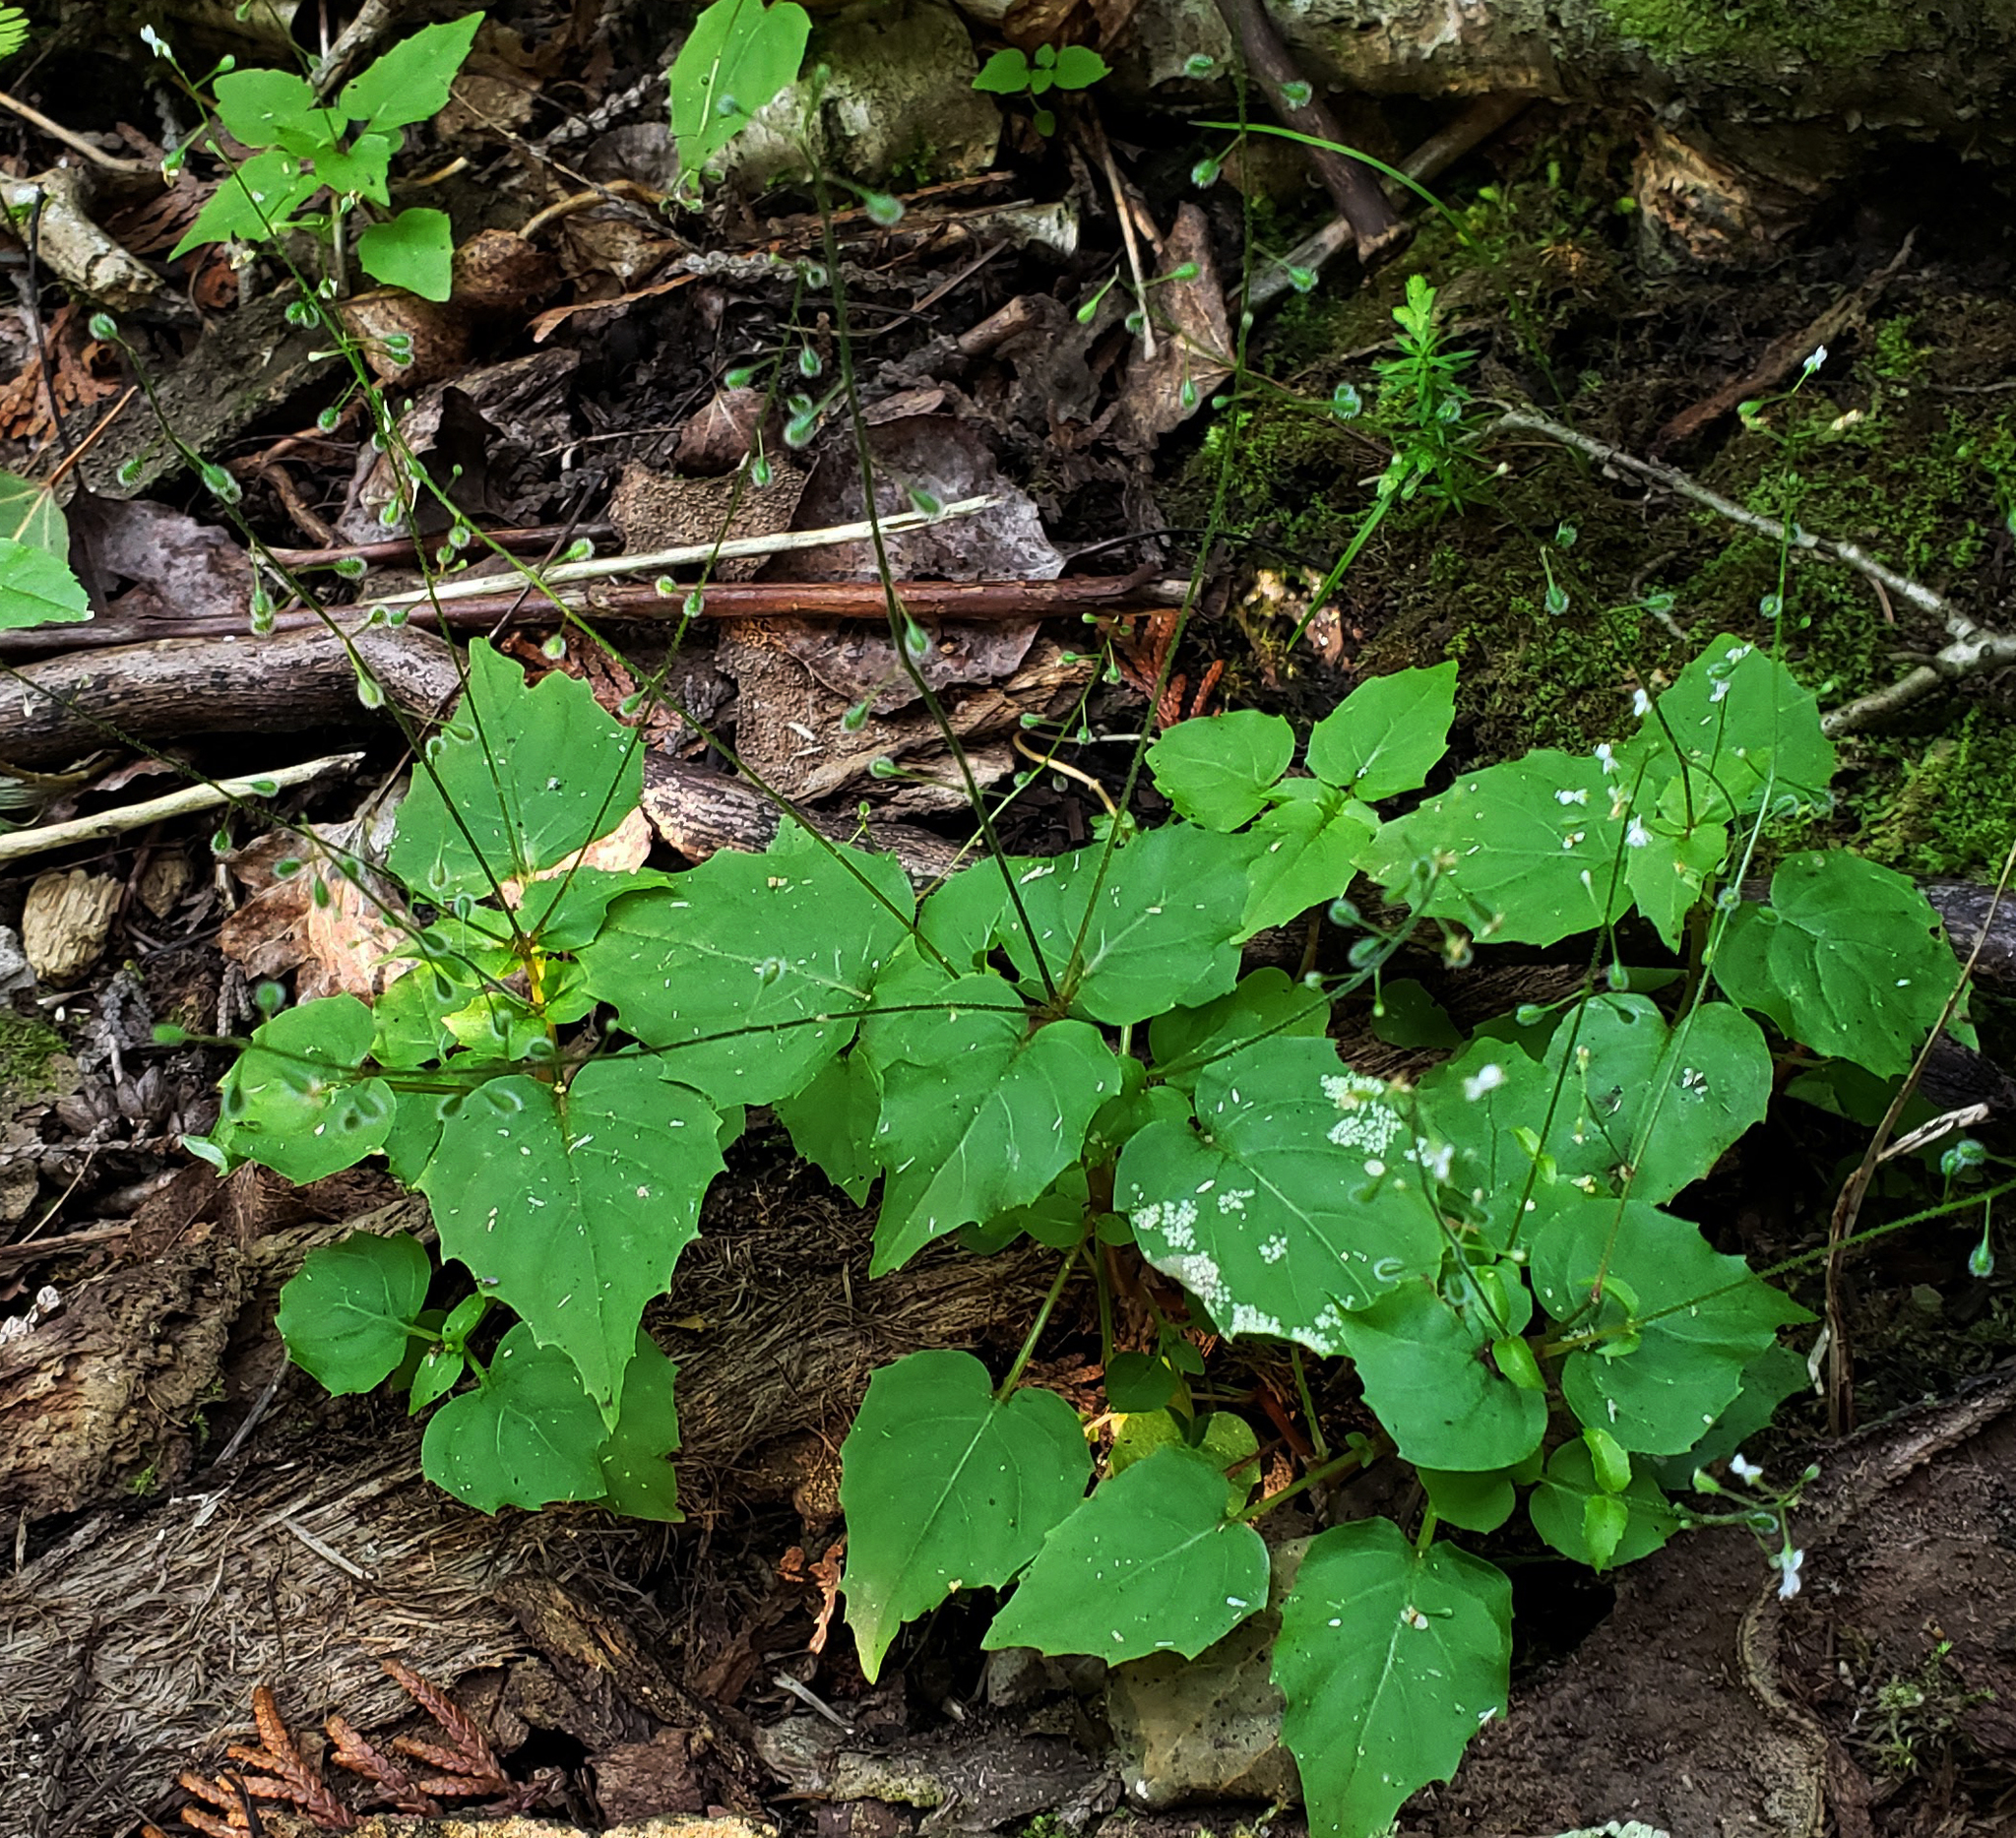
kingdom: Plantae
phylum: Tracheophyta
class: Magnoliopsida
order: Myrtales
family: Onagraceae
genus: Circaea
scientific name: Circaea alpina
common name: Alpine enchanter's-nightshade
